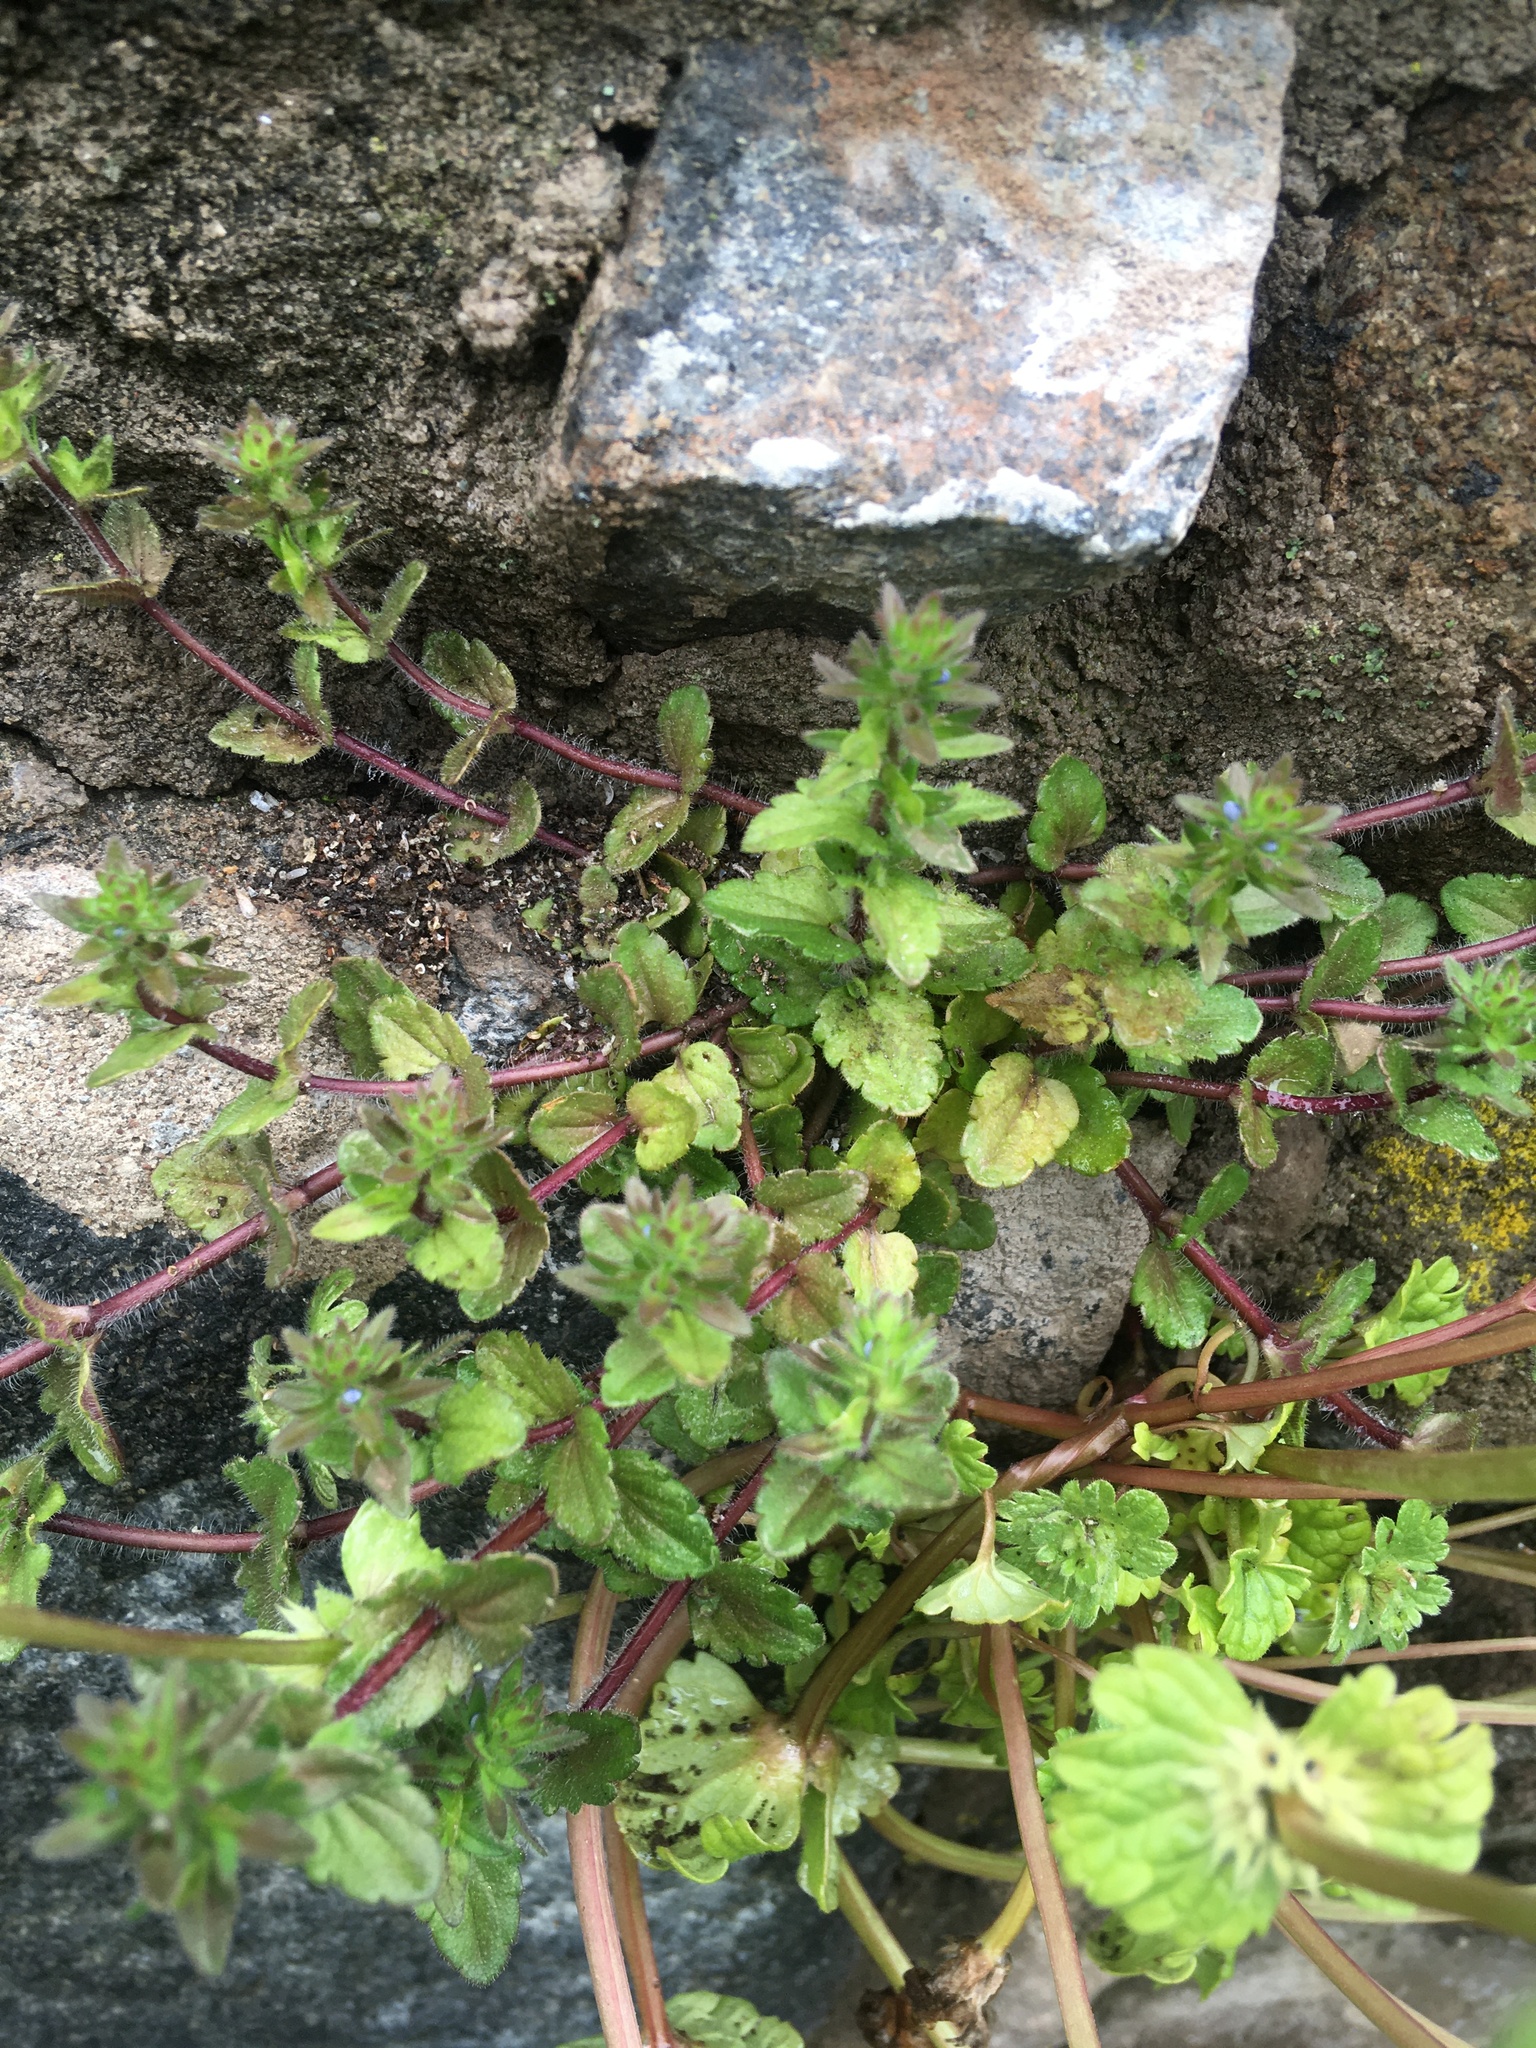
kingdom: Plantae
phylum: Tracheophyta
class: Magnoliopsida
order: Lamiales
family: Plantaginaceae
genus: Veronica
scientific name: Veronica arvensis
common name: Corn speedwell
